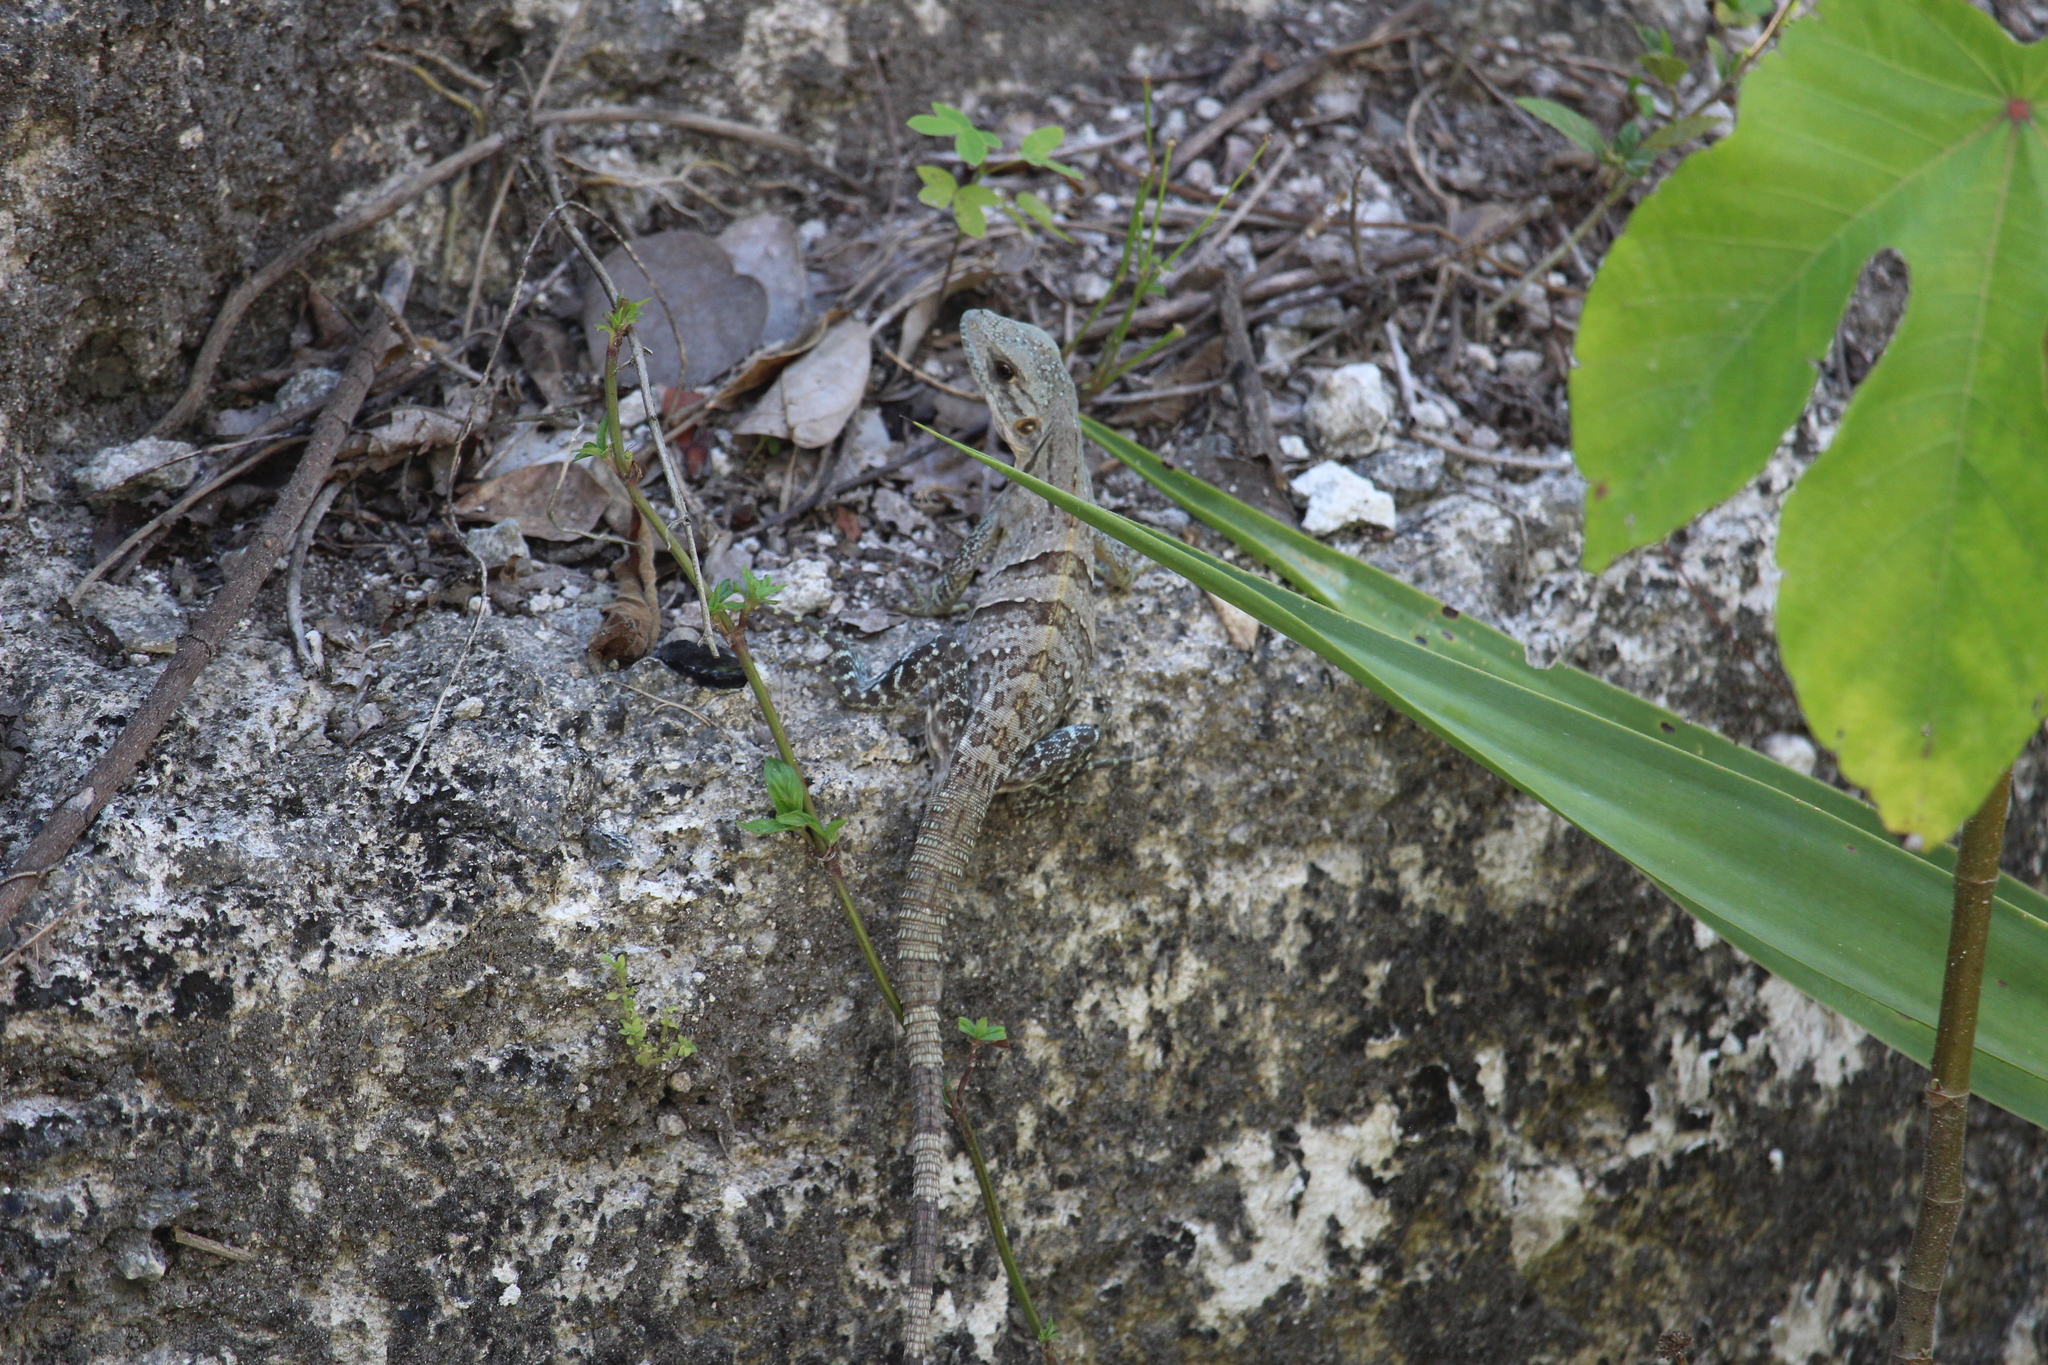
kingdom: Animalia
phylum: Chordata
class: Squamata
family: Iguanidae
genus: Ctenosaura
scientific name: Ctenosaura similis
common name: Black spiny-tailed iguana
